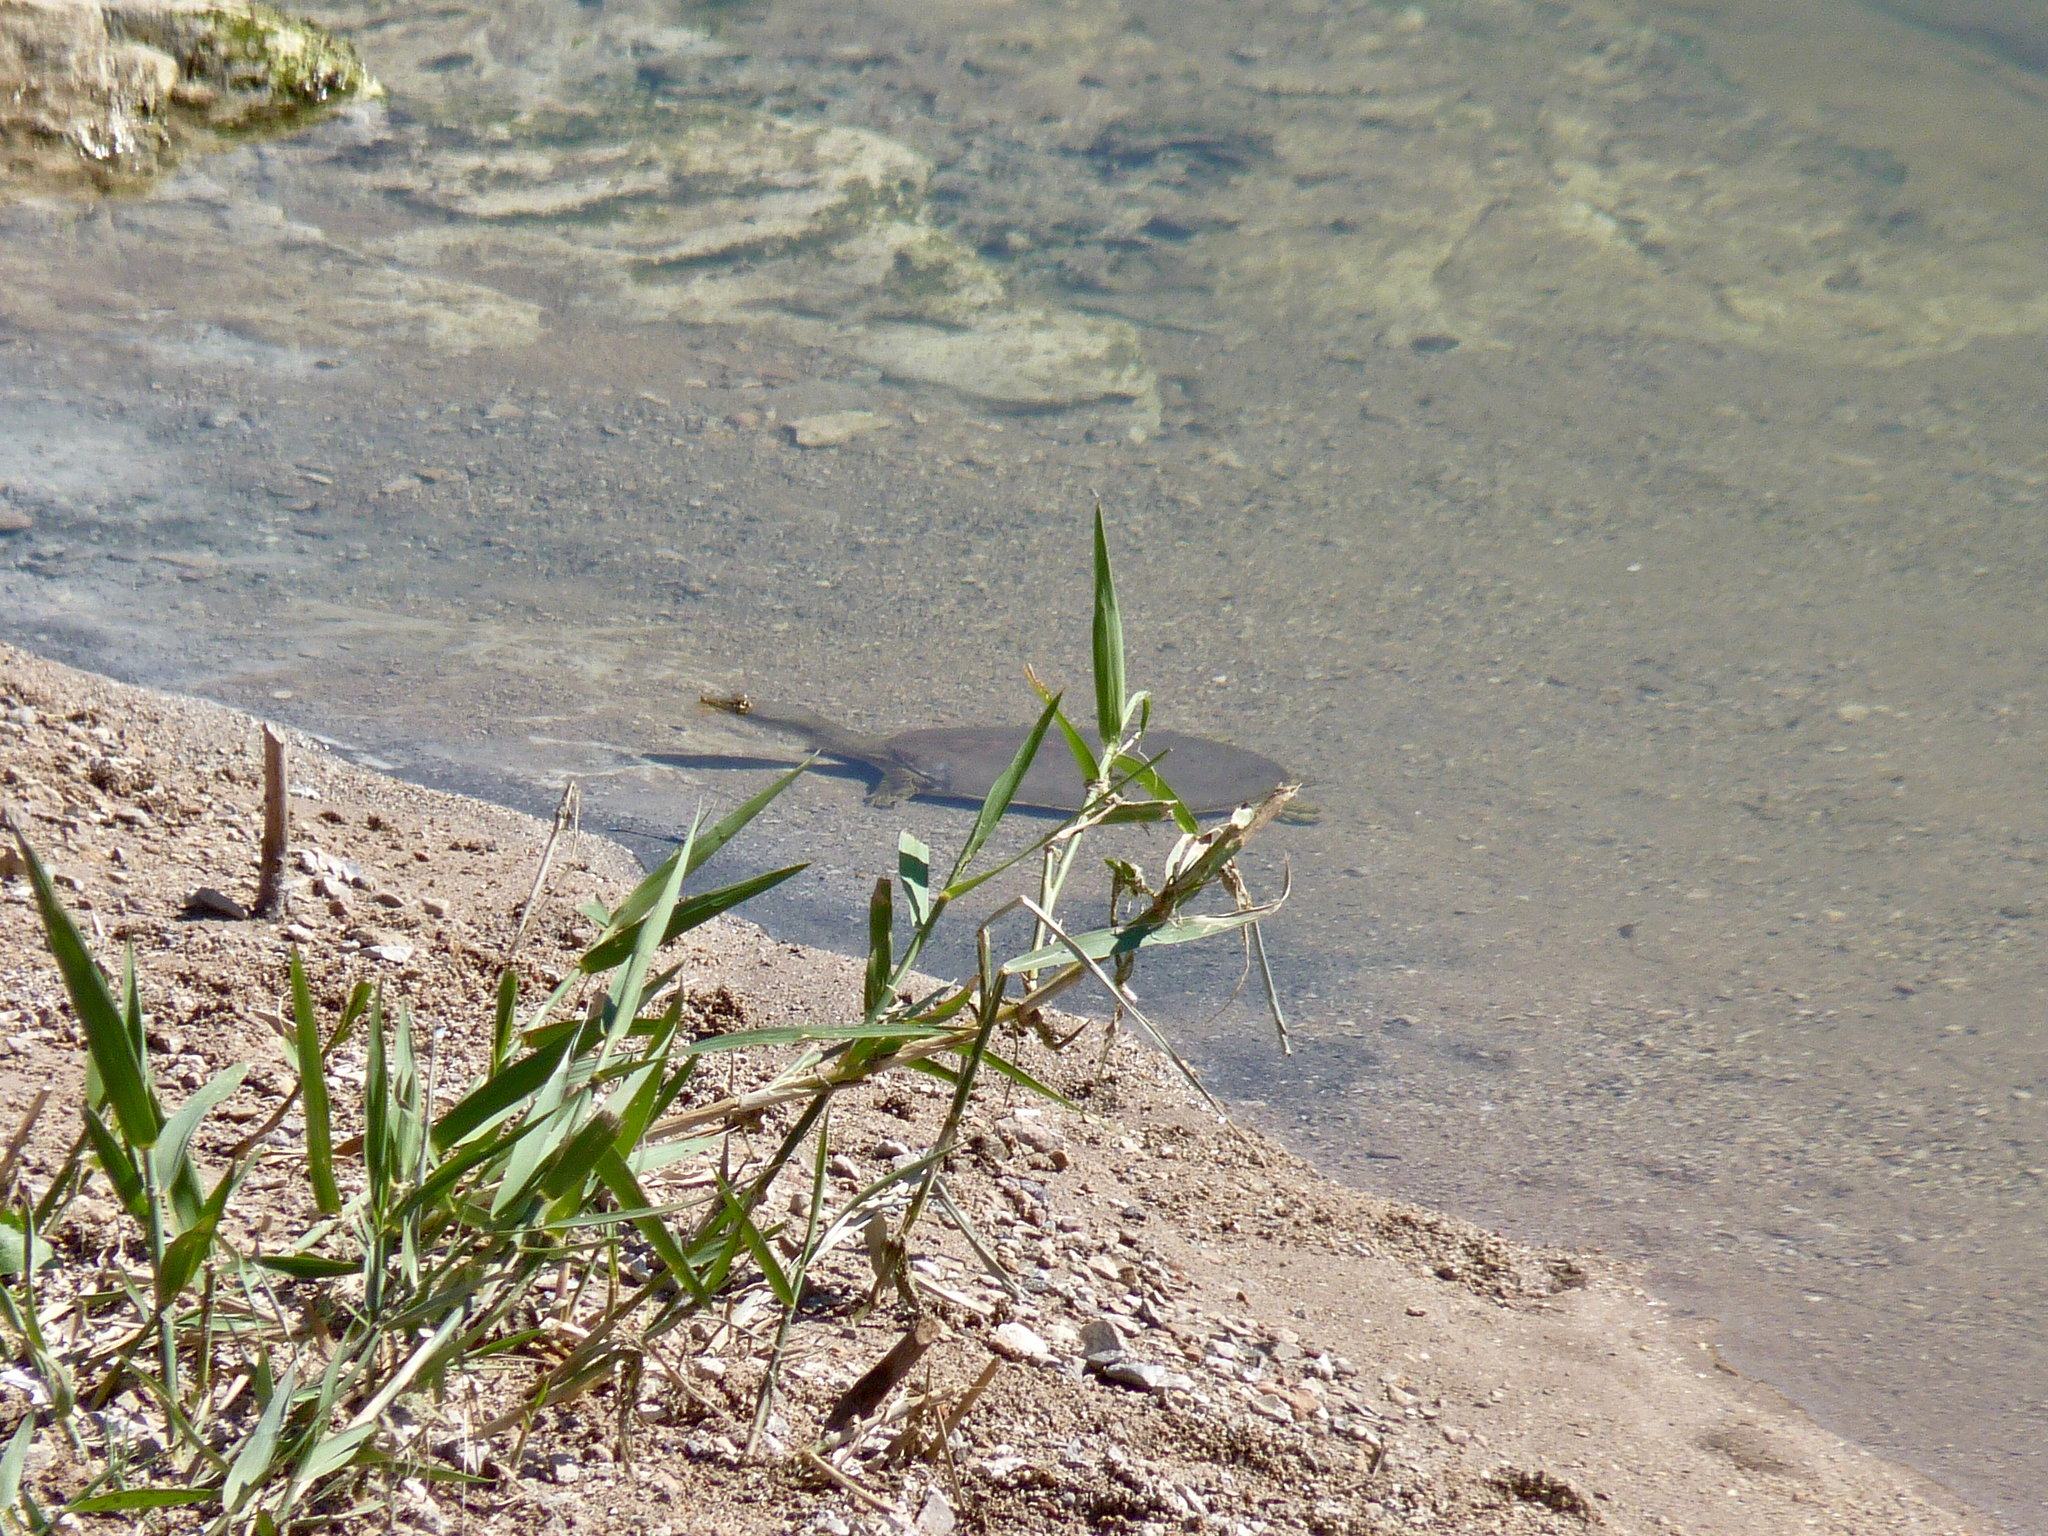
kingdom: Animalia
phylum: Chordata
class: Testudines
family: Trionychidae
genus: Apalone
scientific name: Apalone spinifera
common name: Spiny softshell turtle
